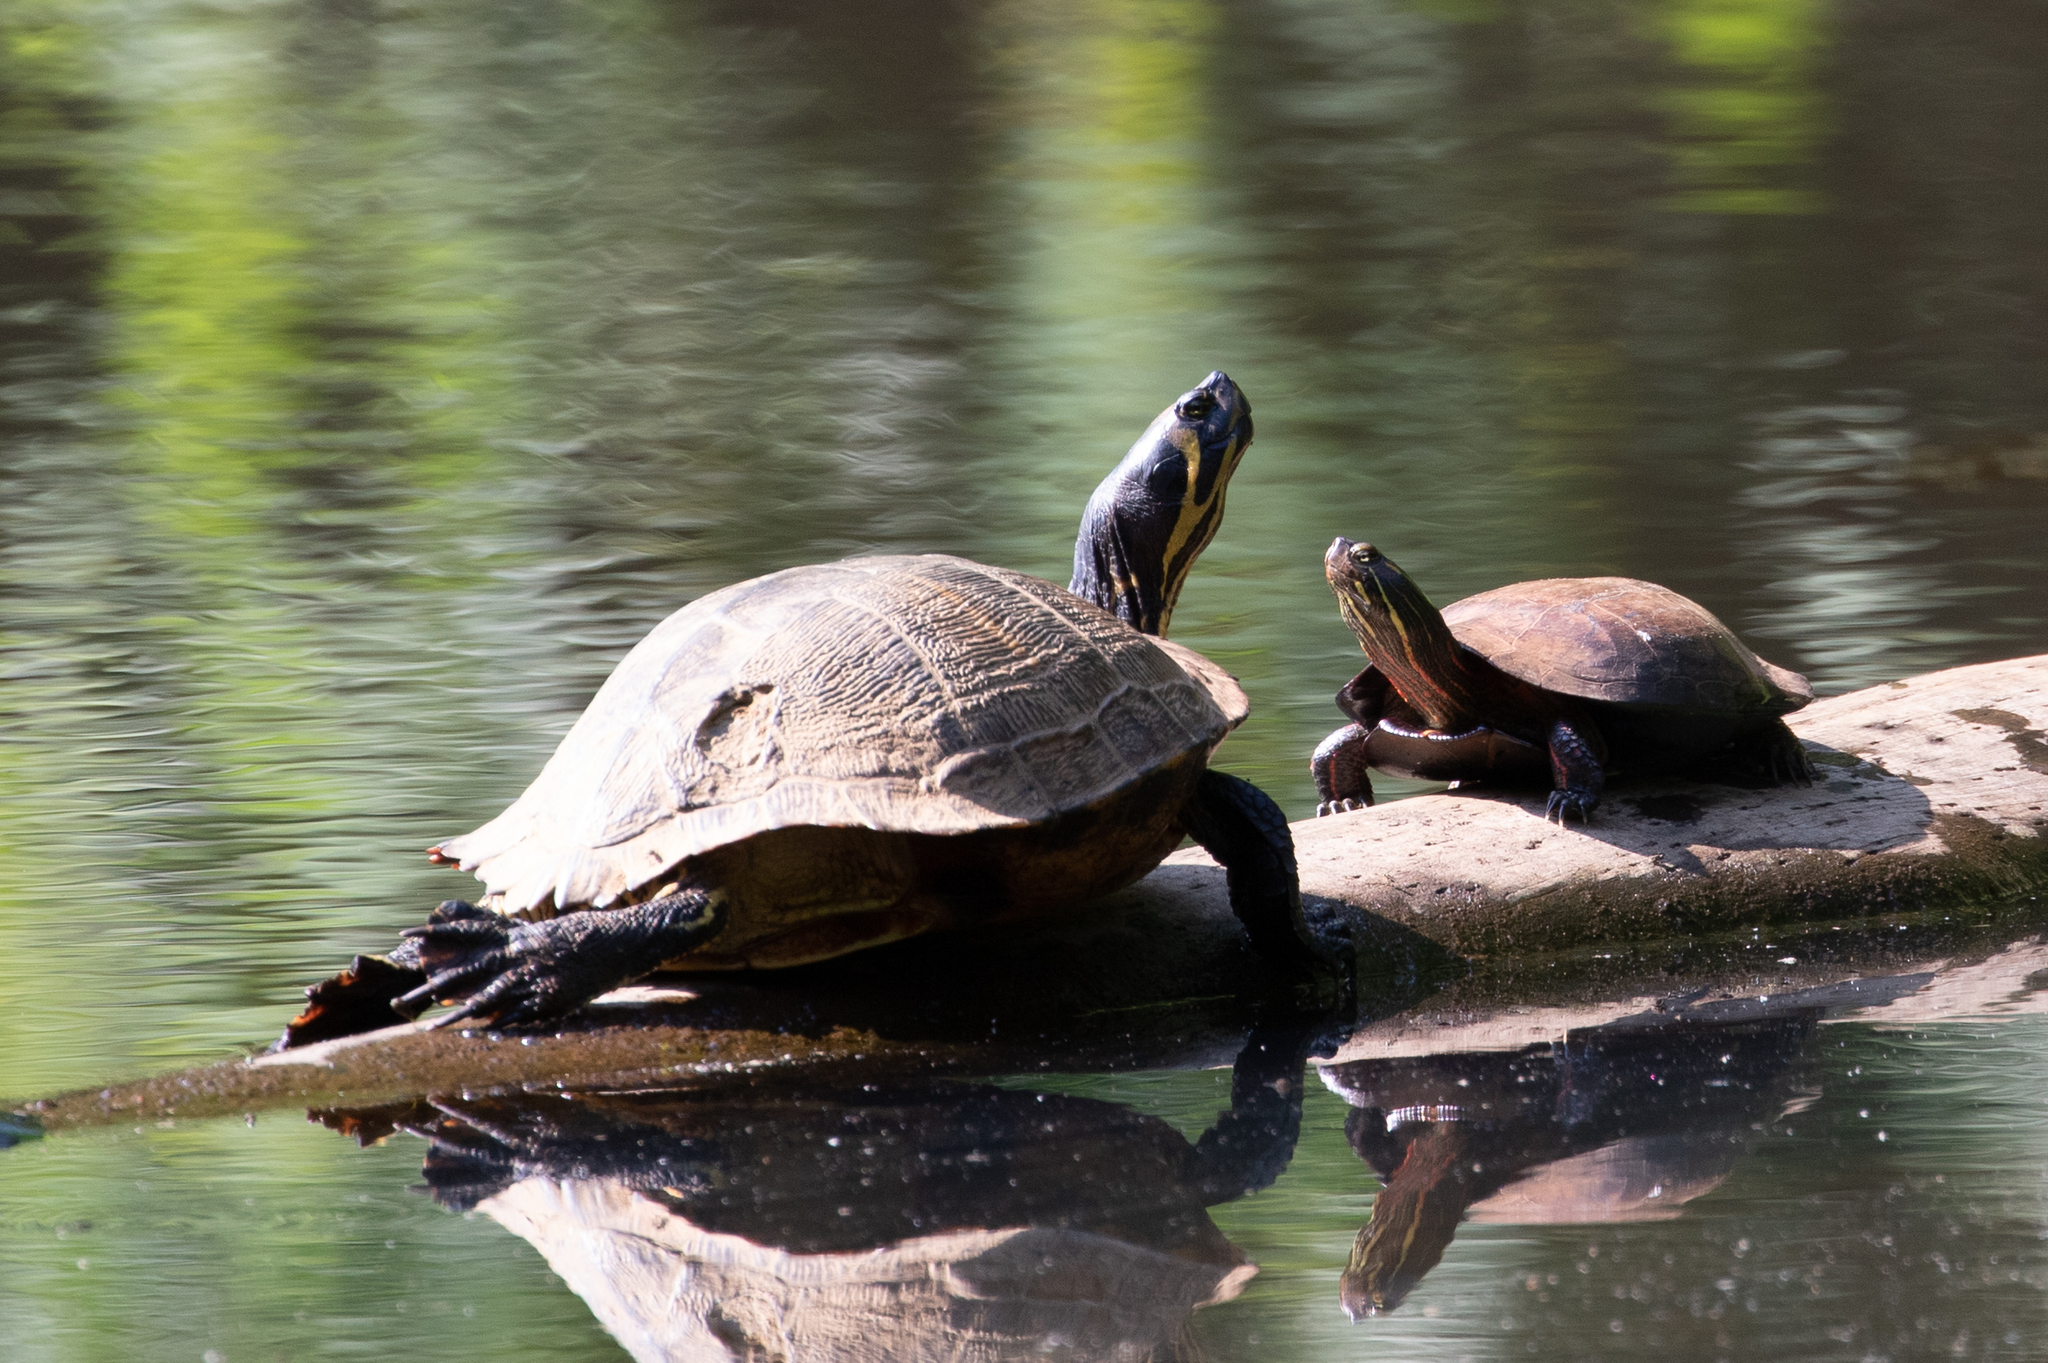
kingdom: Animalia
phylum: Chordata
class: Testudines
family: Emydidae
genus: Trachemys
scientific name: Trachemys scripta
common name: Slider
